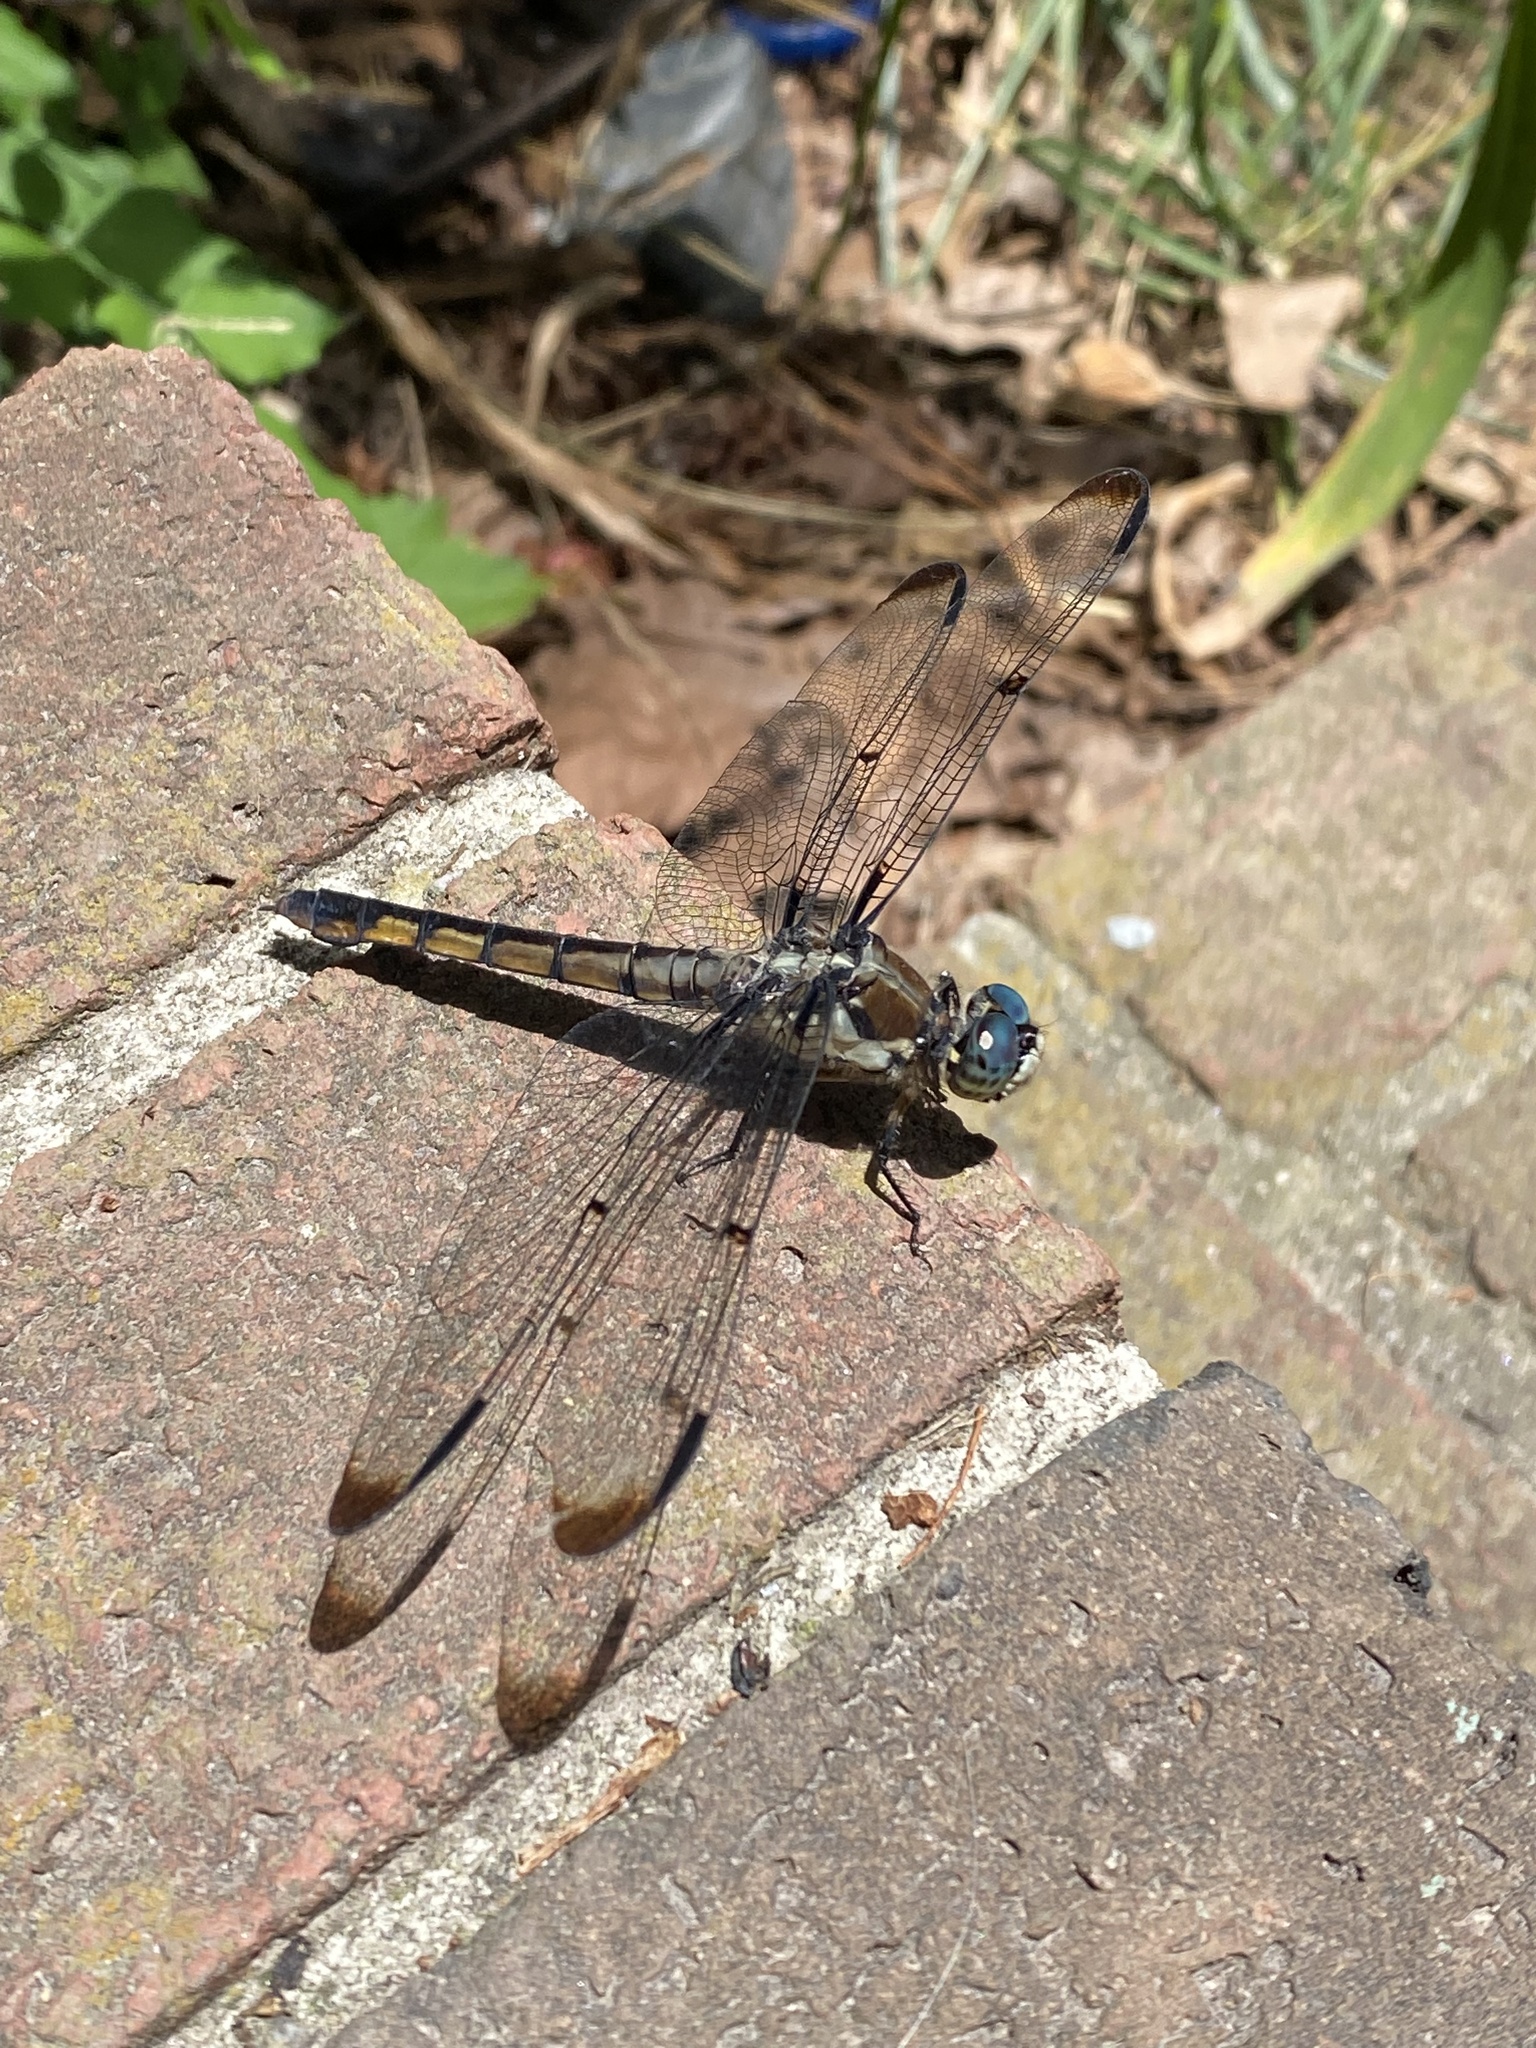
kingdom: Animalia
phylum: Arthropoda
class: Insecta
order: Odonata
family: Libellulidae
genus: Libellula
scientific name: Libellula vibrans
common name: Great blue skimmer
